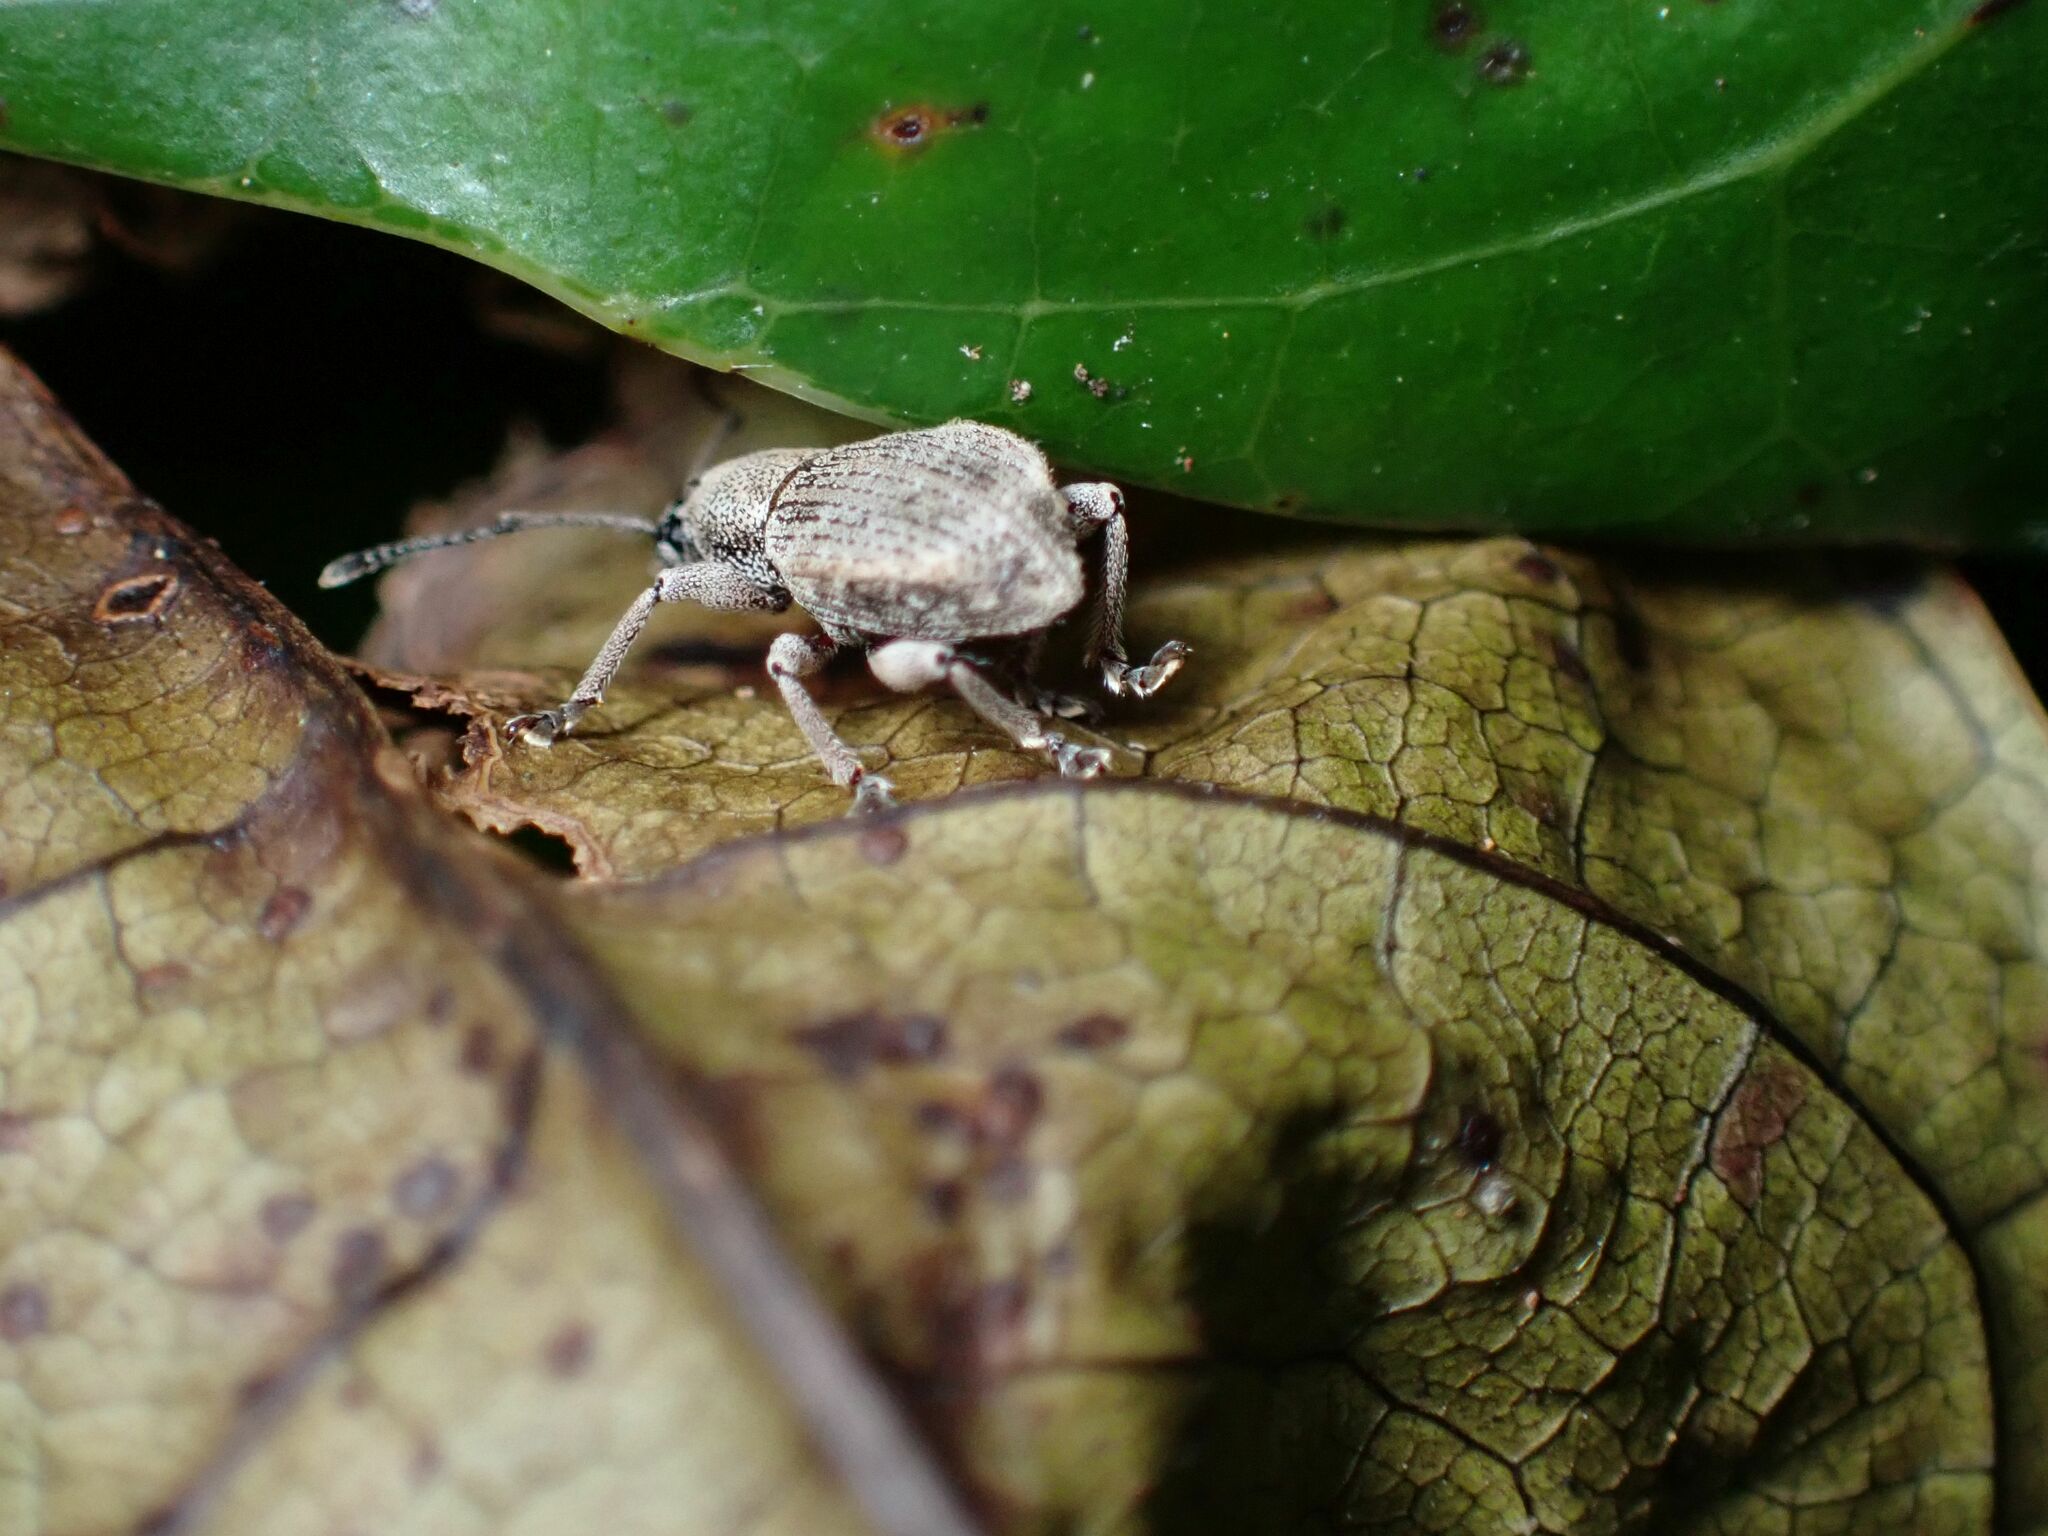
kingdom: Animalia
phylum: Arthropoda
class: Insecta
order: Coleoptera
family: Curculionidae
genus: Platysimus
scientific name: Platysimus septentrionalis
